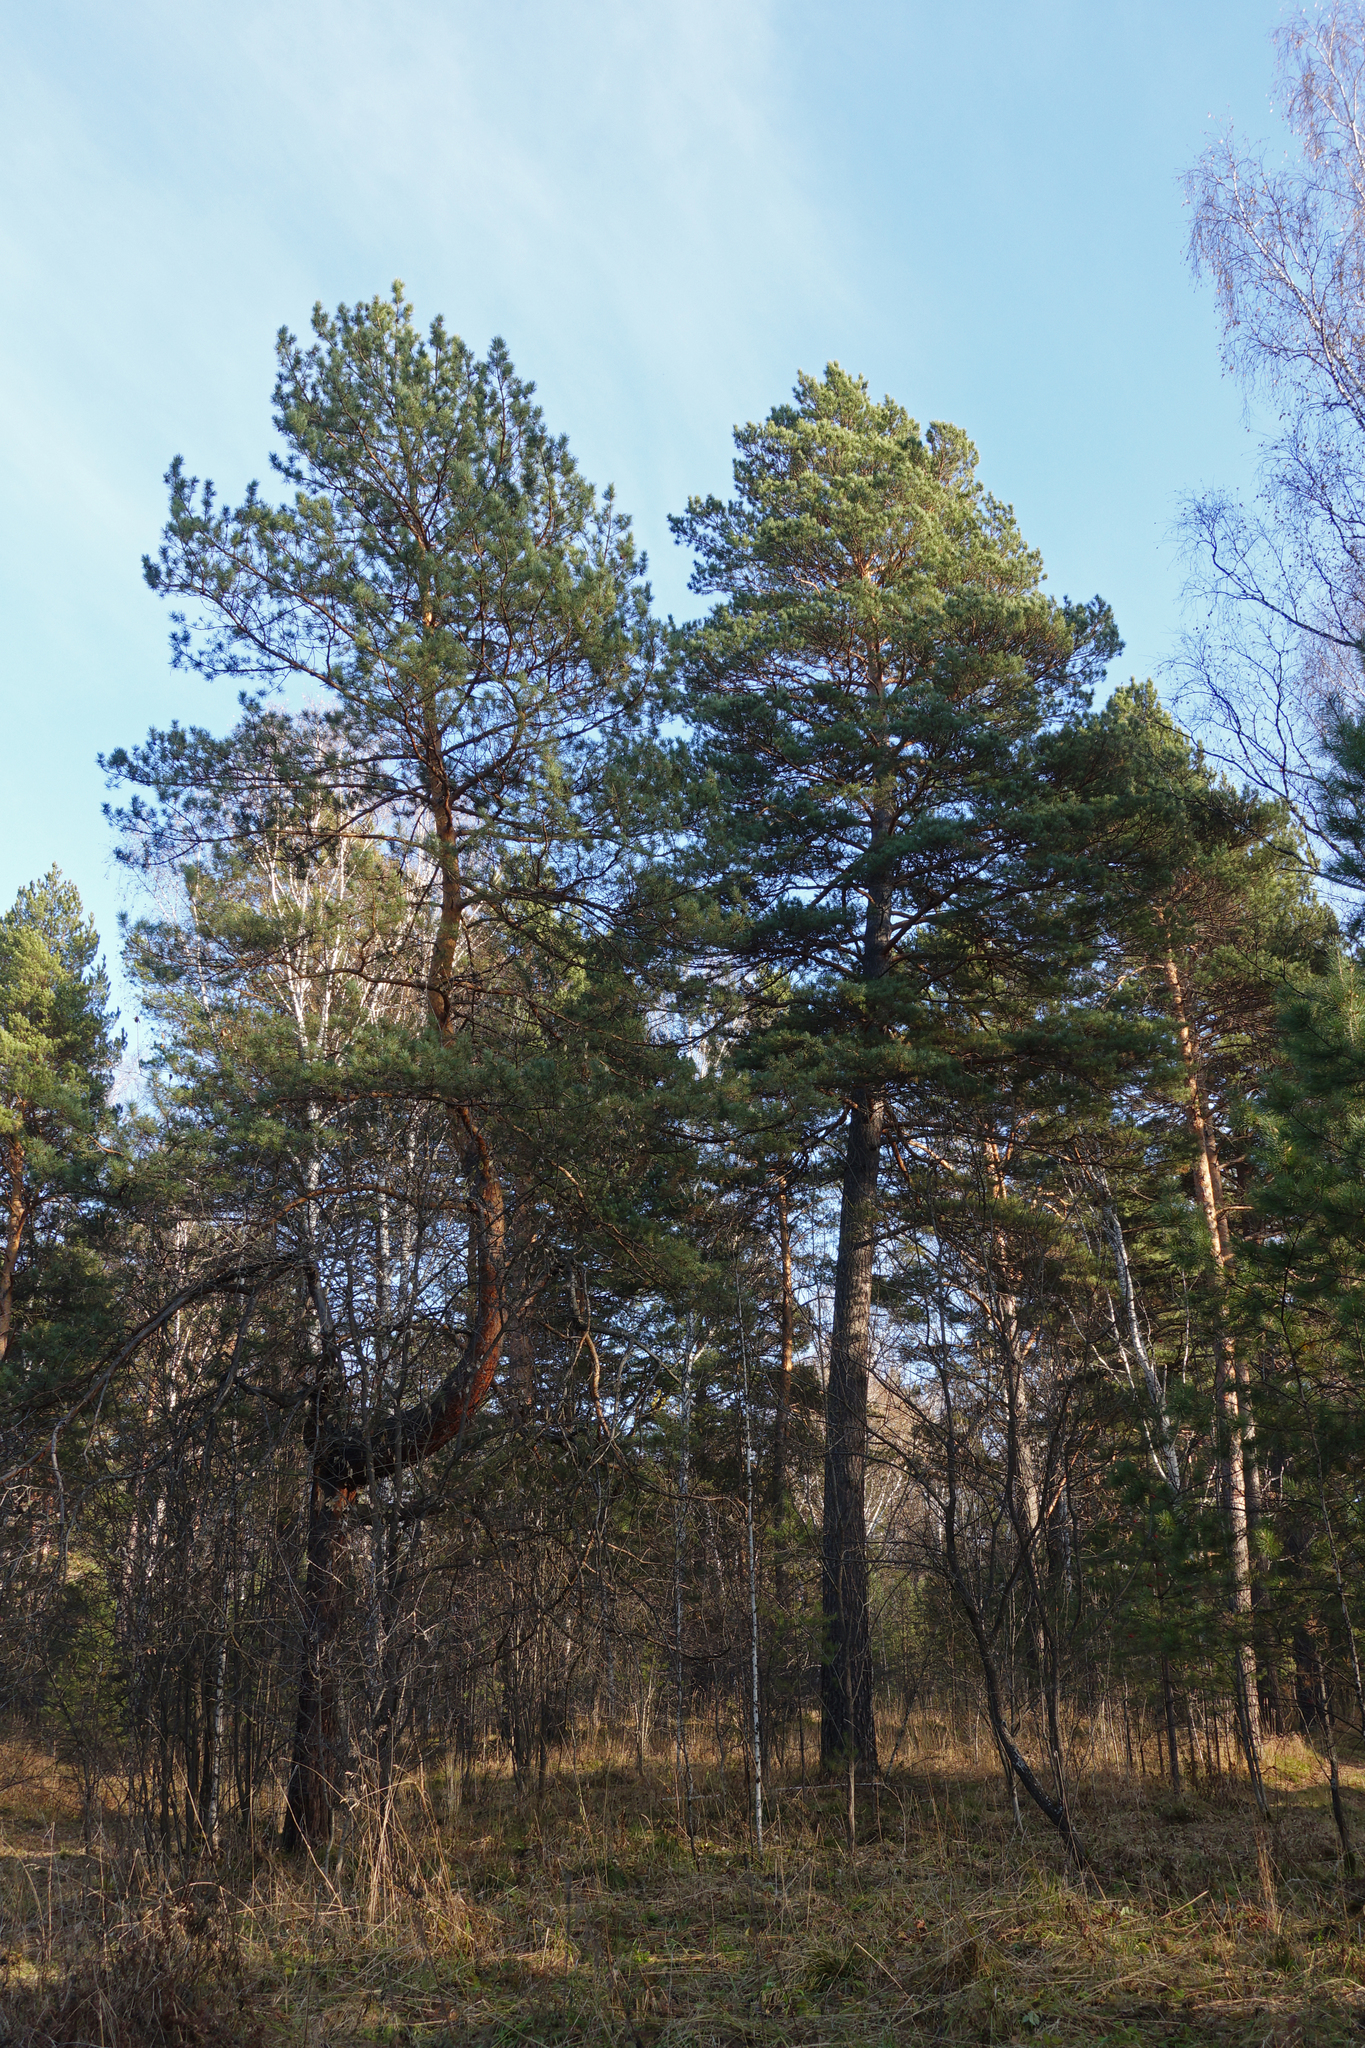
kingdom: Plantae
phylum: Tracheophyta
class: Pinopsida
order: Pinales
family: Pinaceae
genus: Pinus
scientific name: Pinus sylvestris
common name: Scots pine
